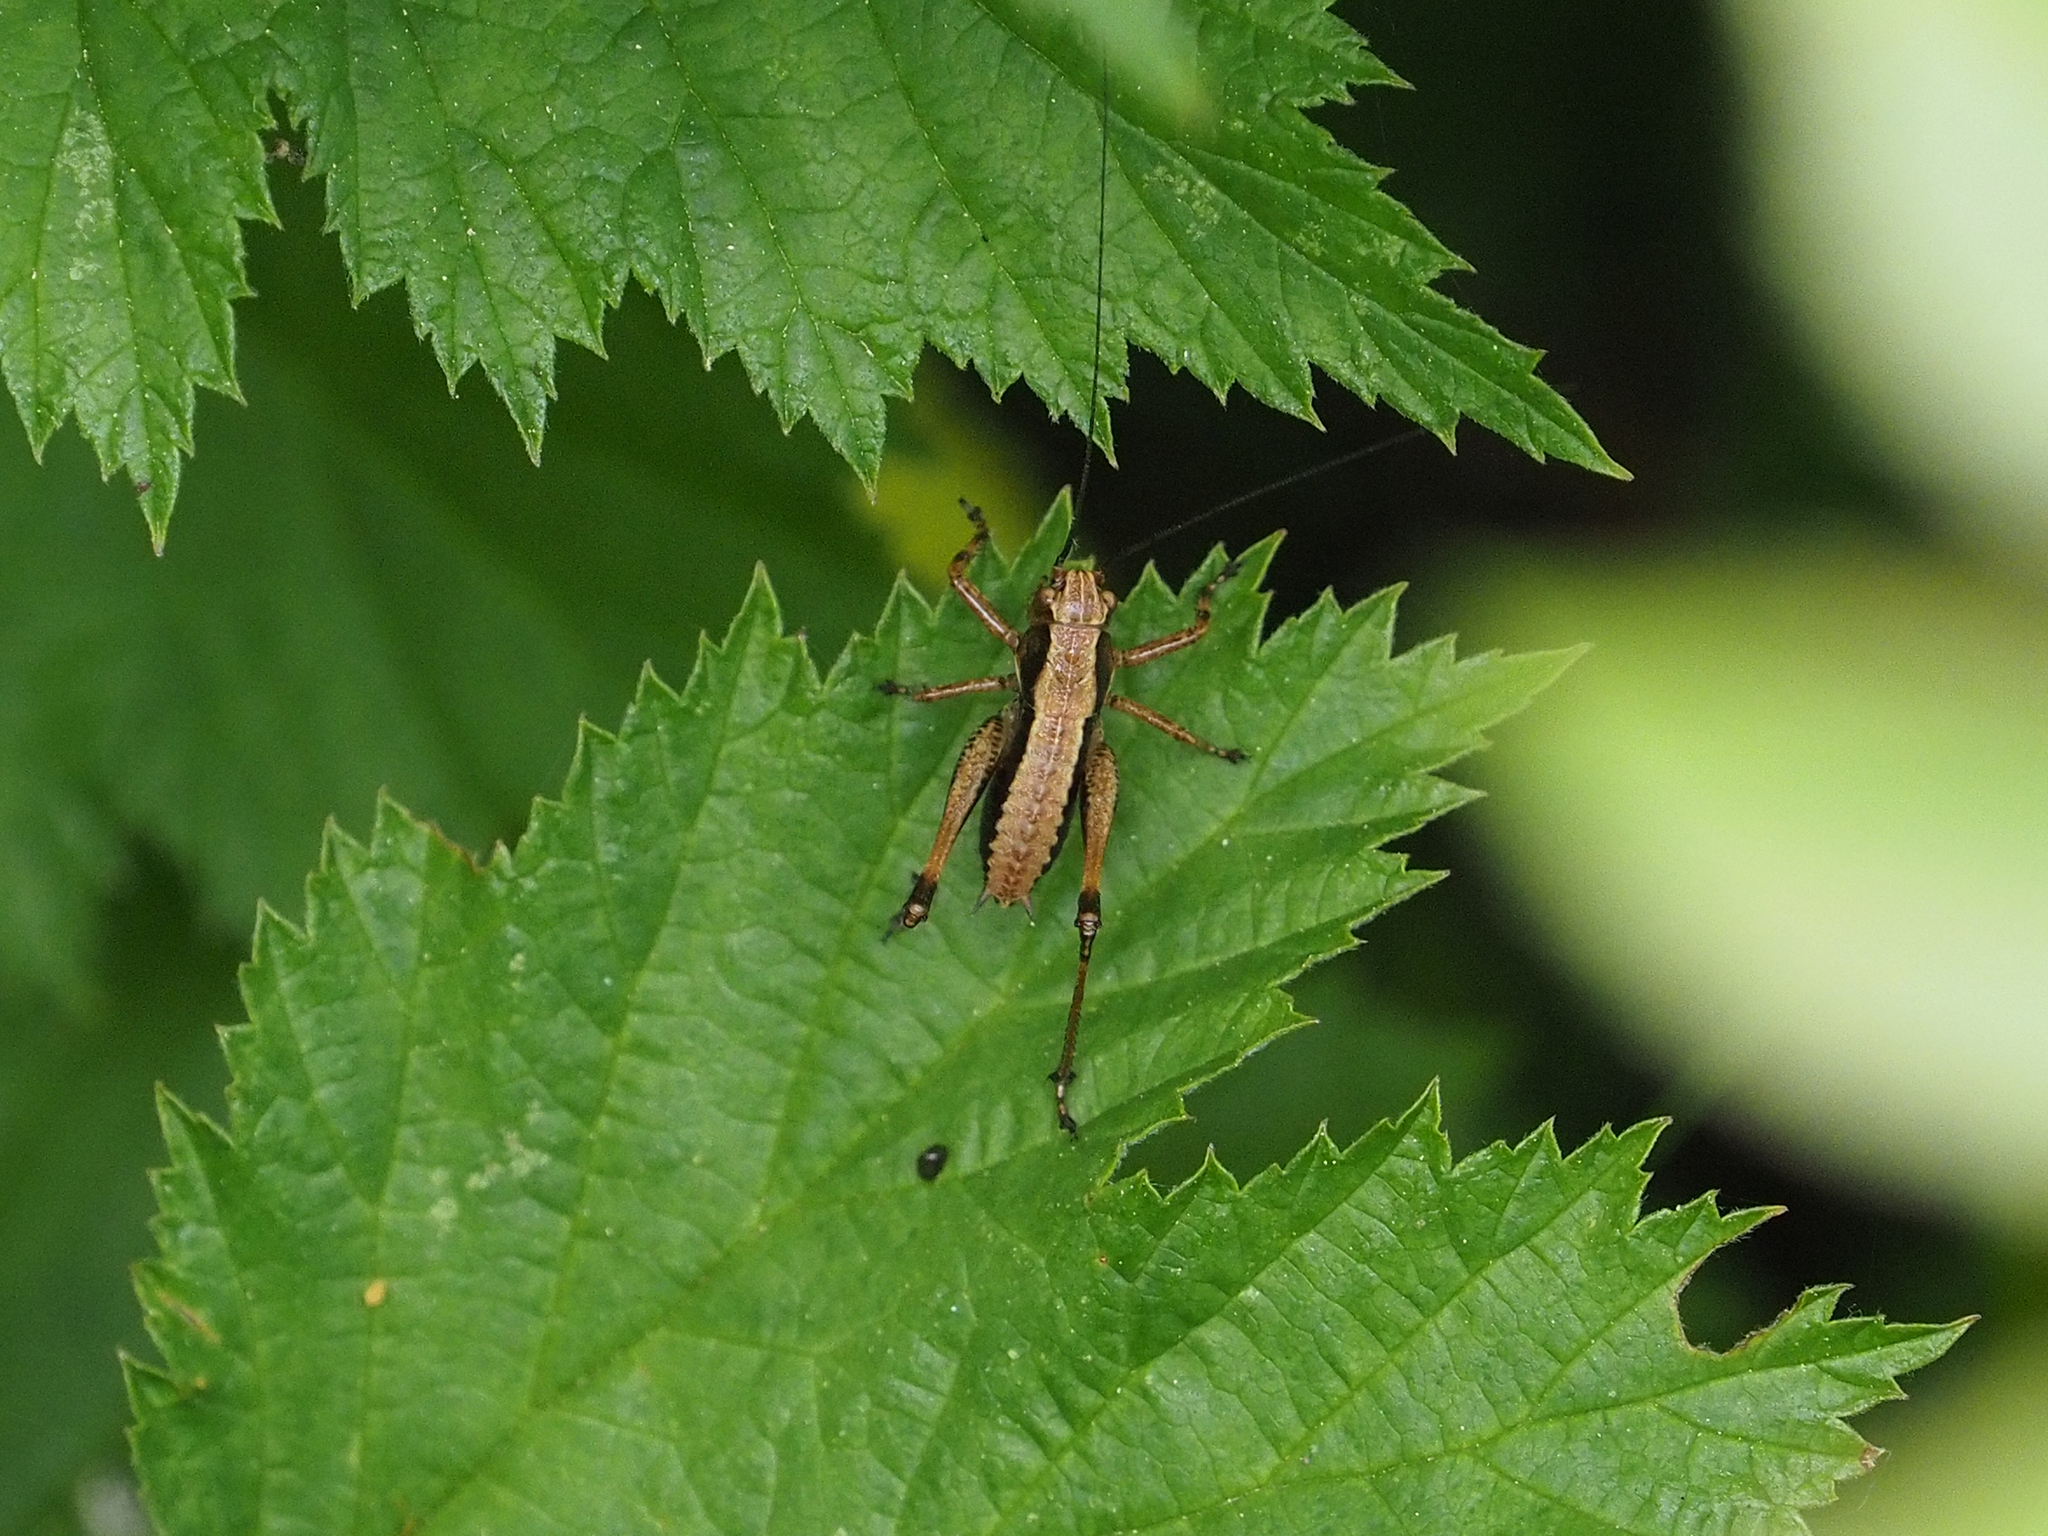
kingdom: Animalia
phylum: Arthropoda
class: Insecta
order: Orthoptera
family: Tettigoniidae
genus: Pholidoptera
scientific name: Pholidoptera griseoaptera
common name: Dark bush-cricket
